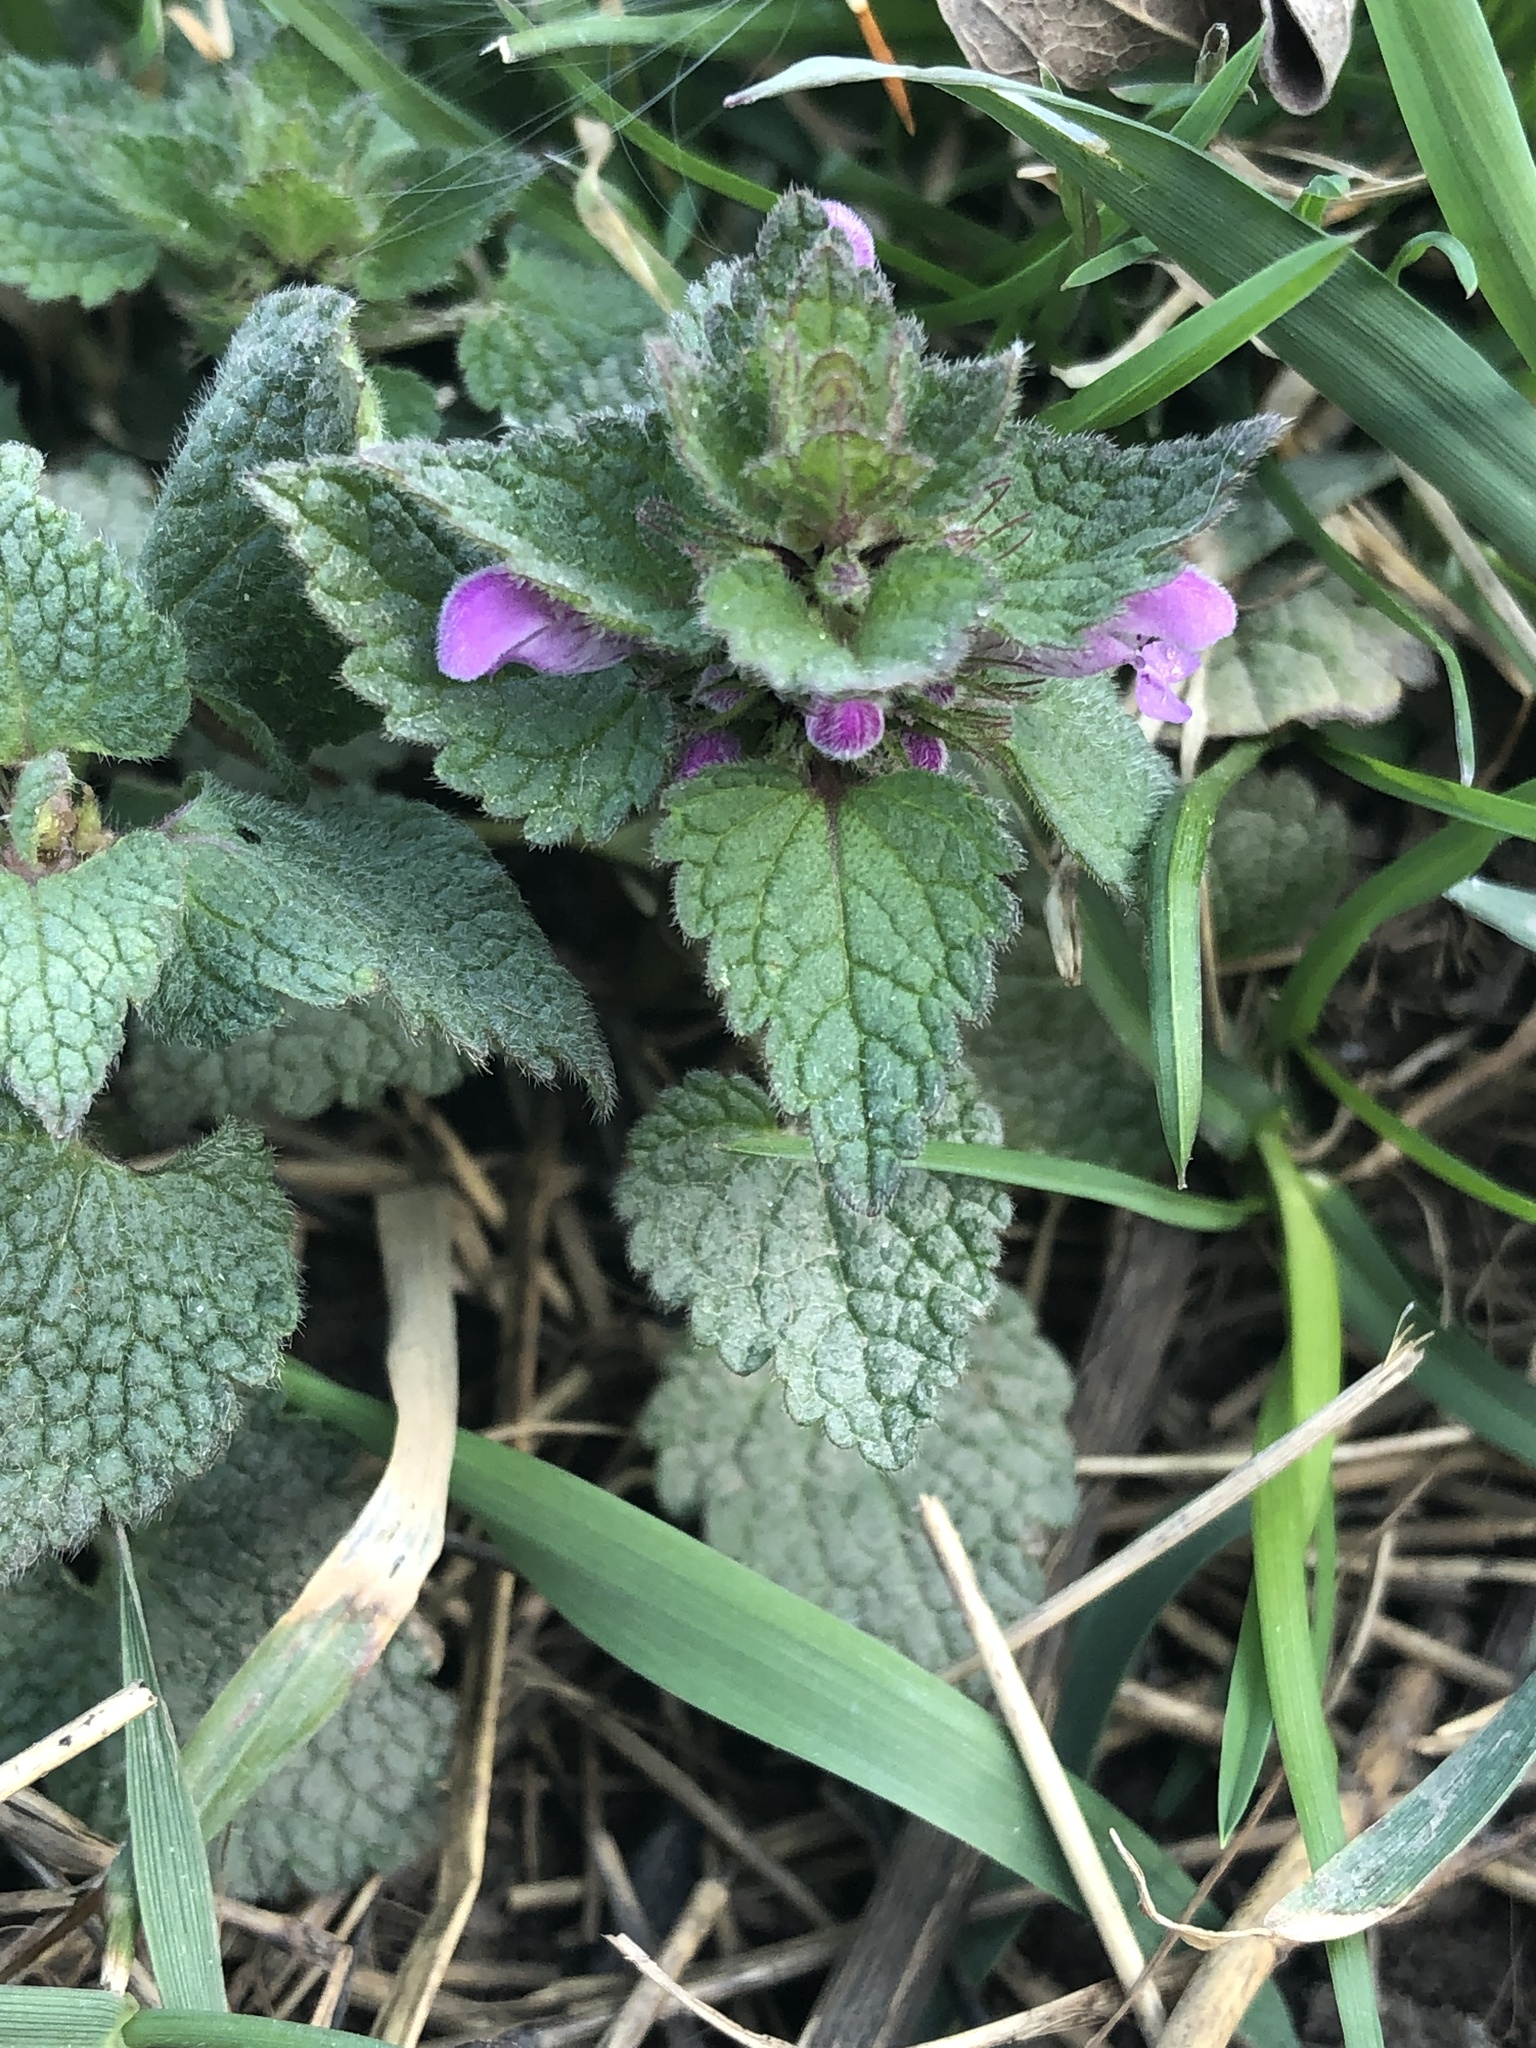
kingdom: Plantae
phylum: Tracheophyta
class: Magnoliopsida
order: Lamiales
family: Lamiaceae
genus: Lamium
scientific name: Lamium purpureum
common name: Red dead-nettle
